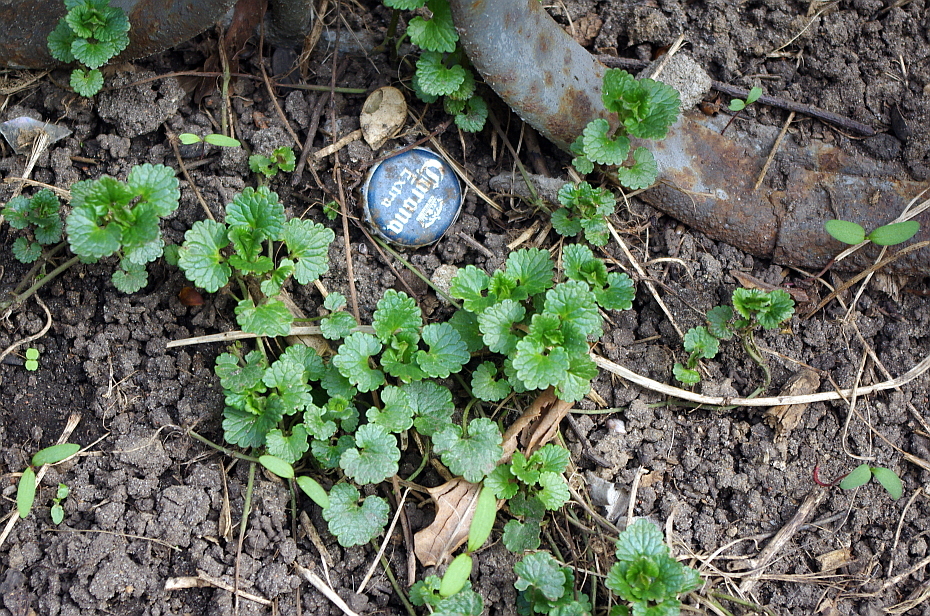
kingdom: Plantae
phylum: Tracheophyta
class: Magnoliopsida
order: Lamiales
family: Lamiaceae
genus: Glechoma
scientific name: Glechoma hederacea
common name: Ground ivy
